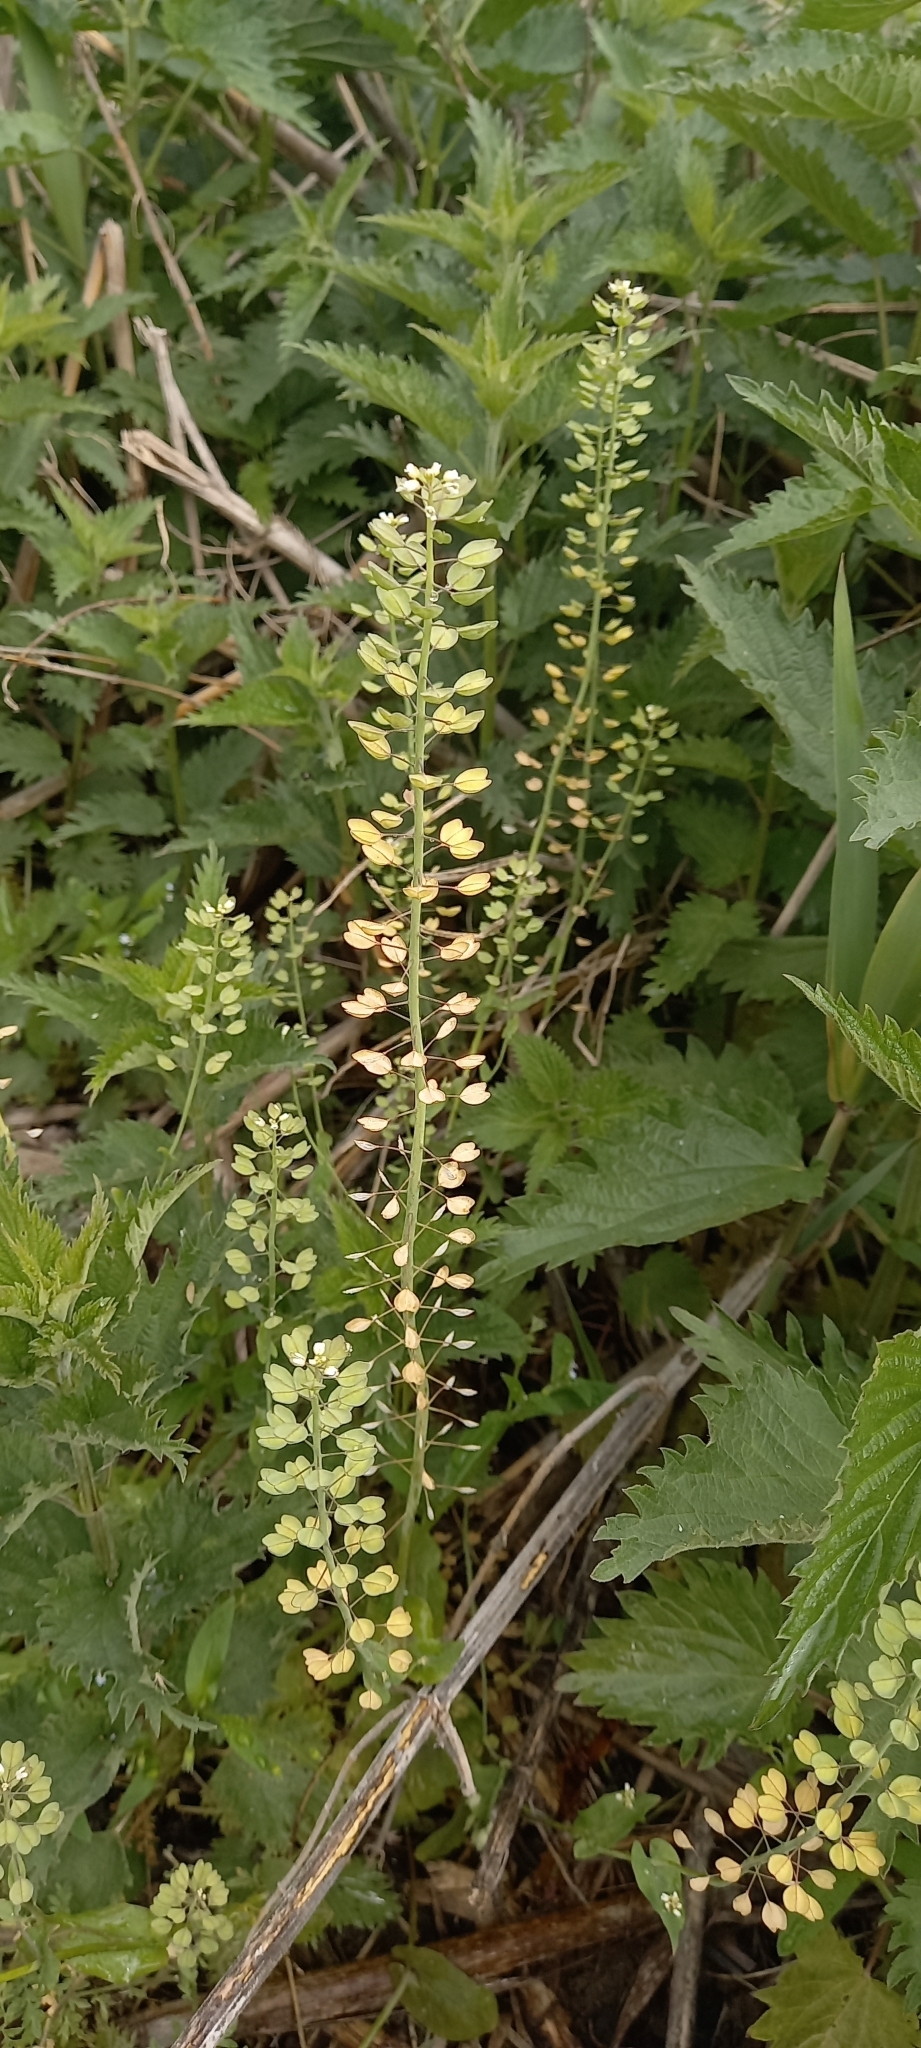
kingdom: Plantae
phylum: Tracheophyta
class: Magnoliopsida
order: Brassicales
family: Brassicaceae
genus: Noccaea
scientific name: Noccaea perfoliata
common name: Perfoliate pennycress
